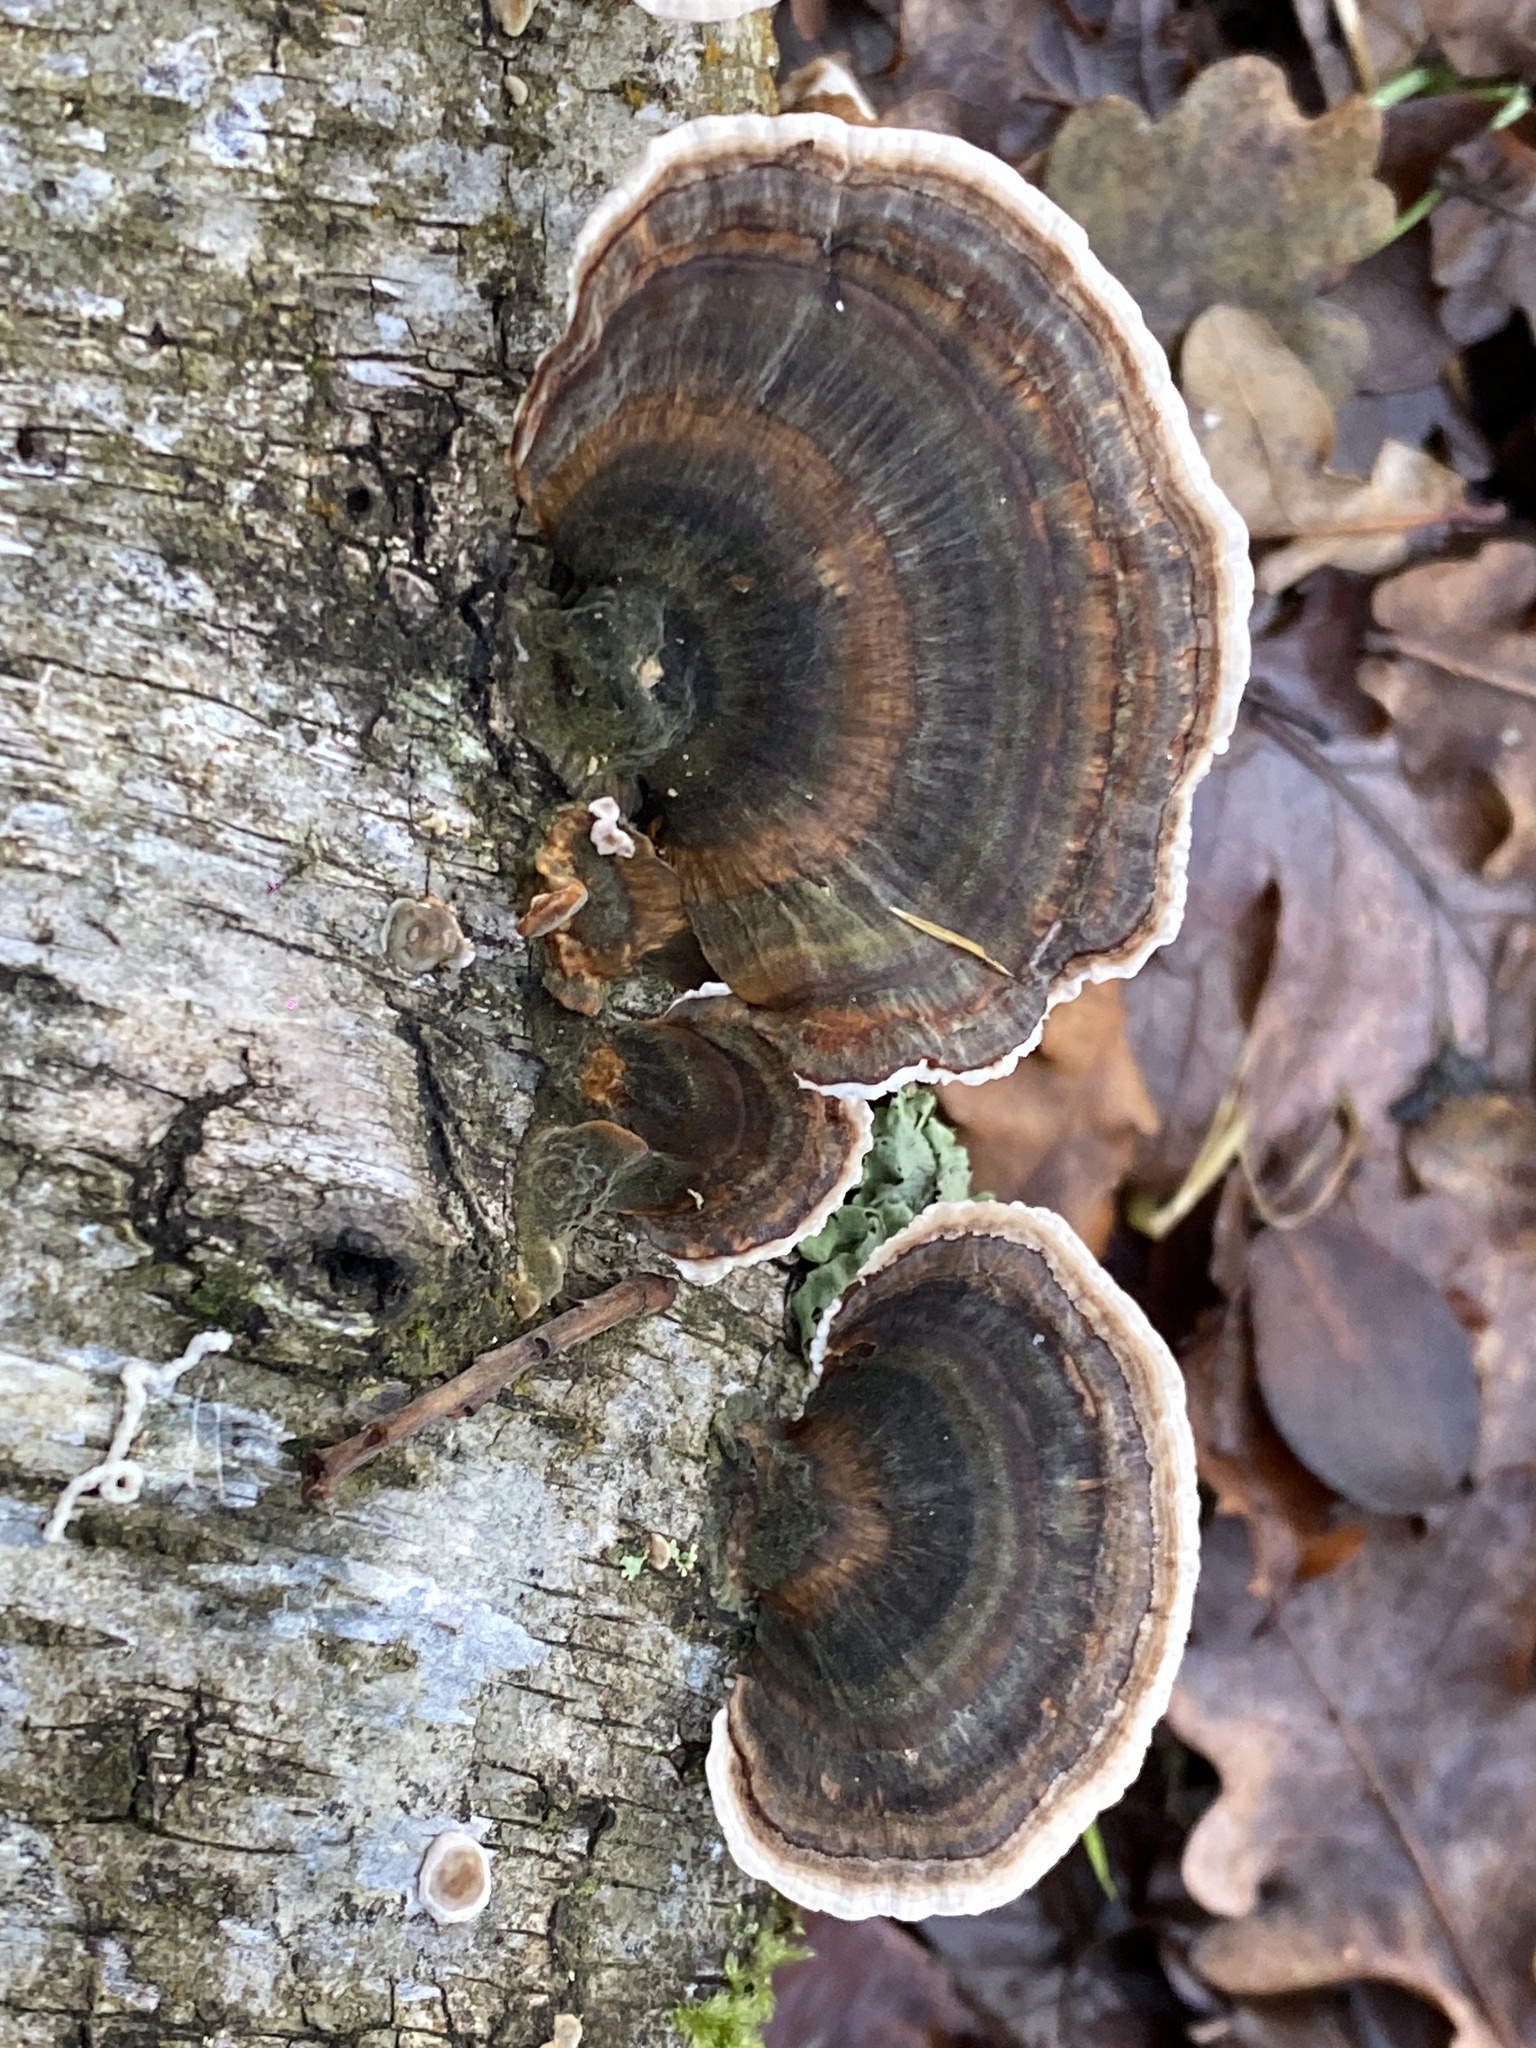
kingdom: Fungi
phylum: Basidiomycota
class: Agaricomycetes
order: Polyporales
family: Polyporaceae
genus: Trametes
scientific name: Trametes versicolor
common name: Turkeytail
